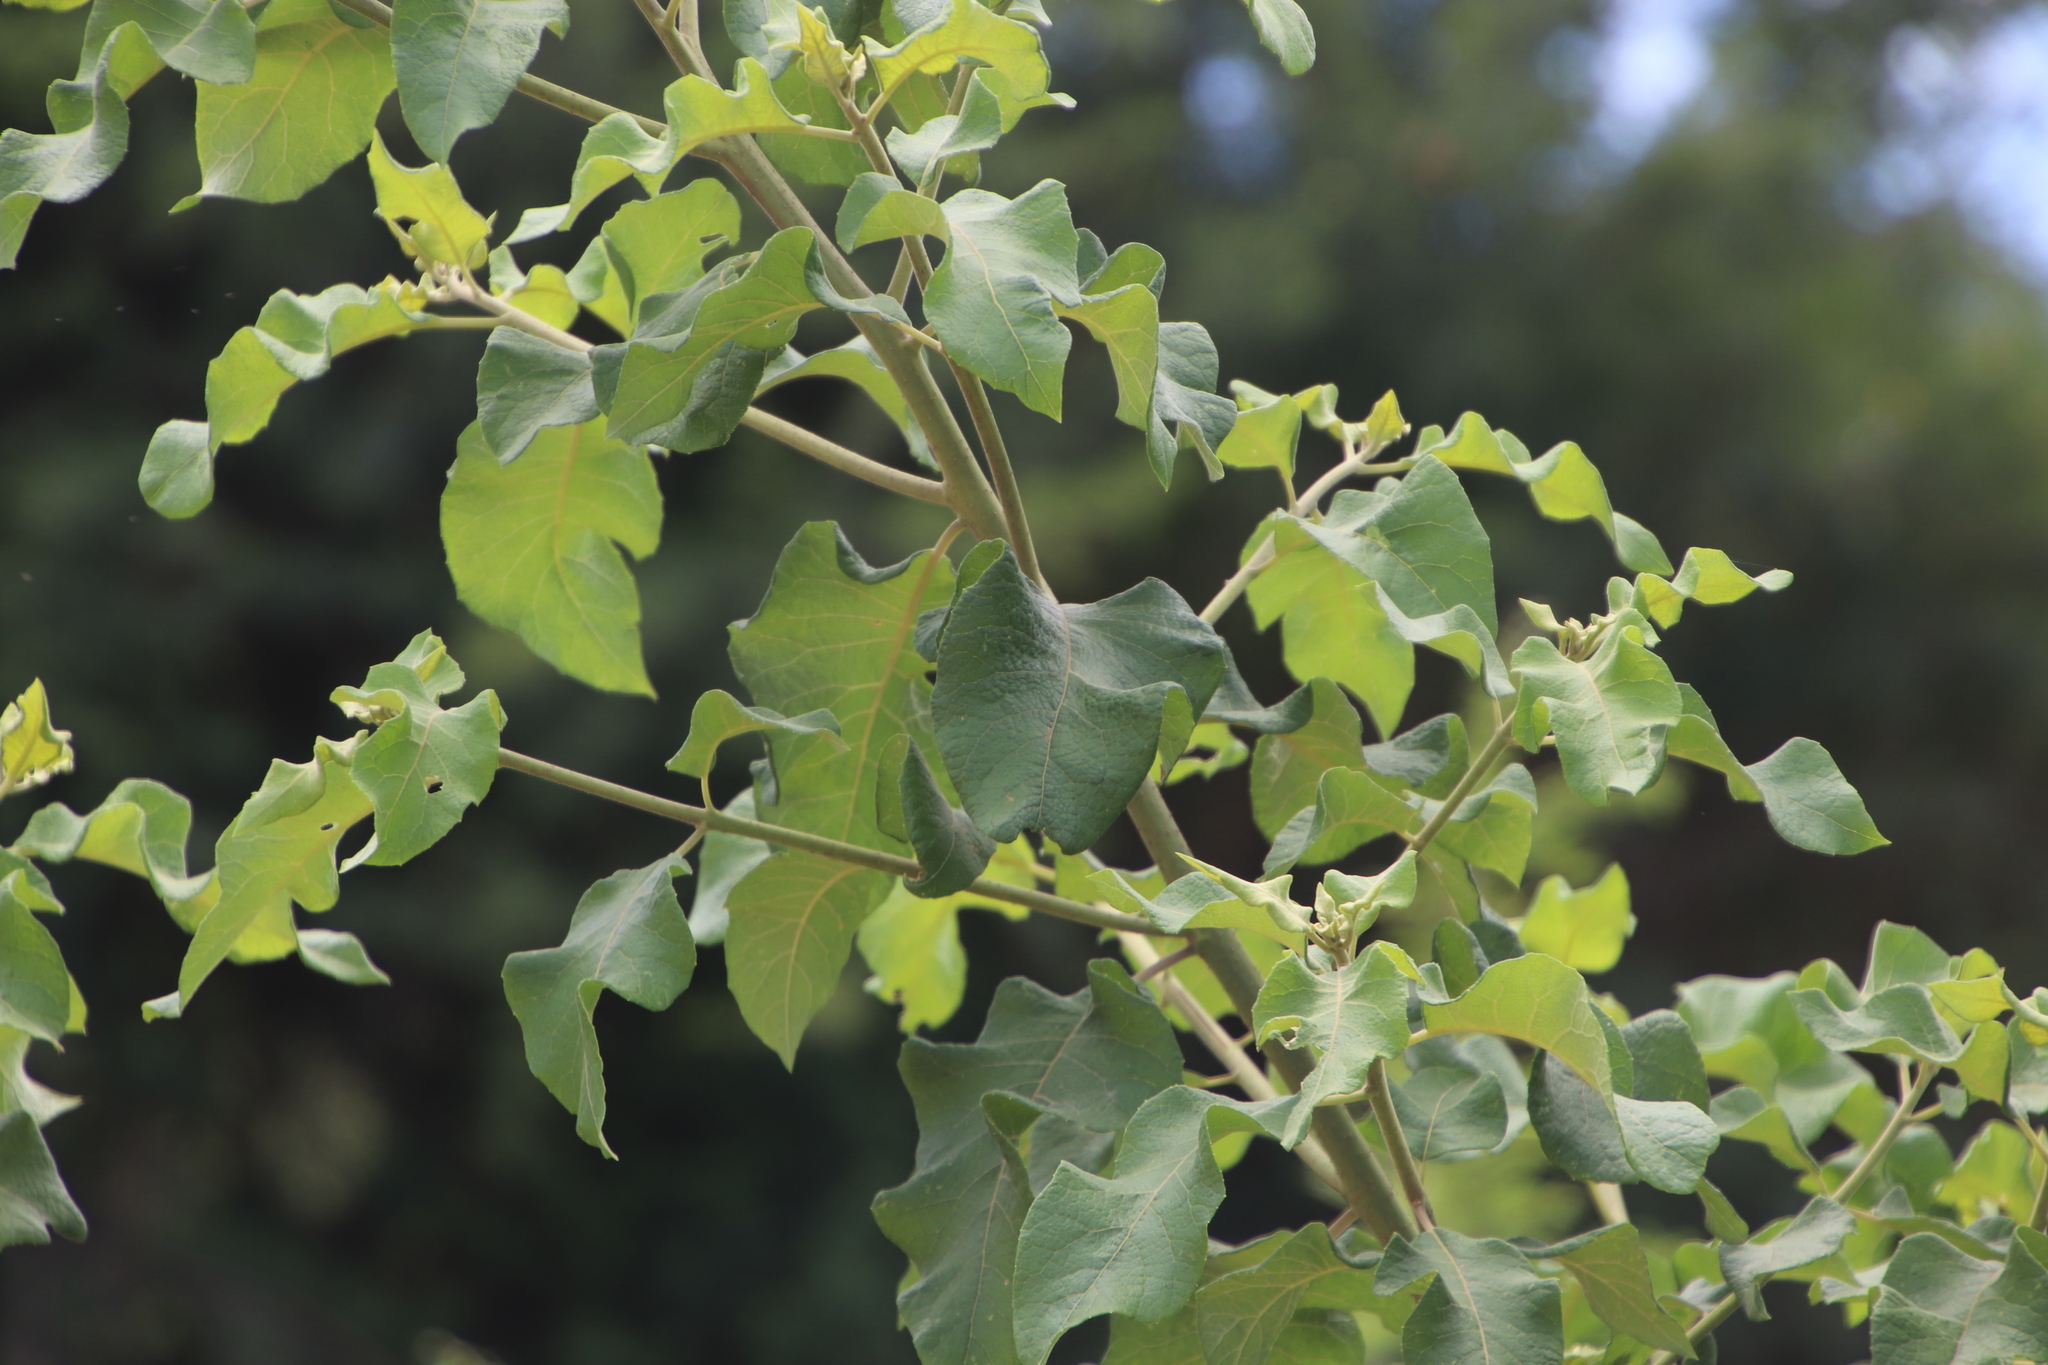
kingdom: Plantae
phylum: Tracheophyta
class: Magnoliopsida
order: Asterales
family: Asteraceae
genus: Vernonia
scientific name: Vernonia colorata
